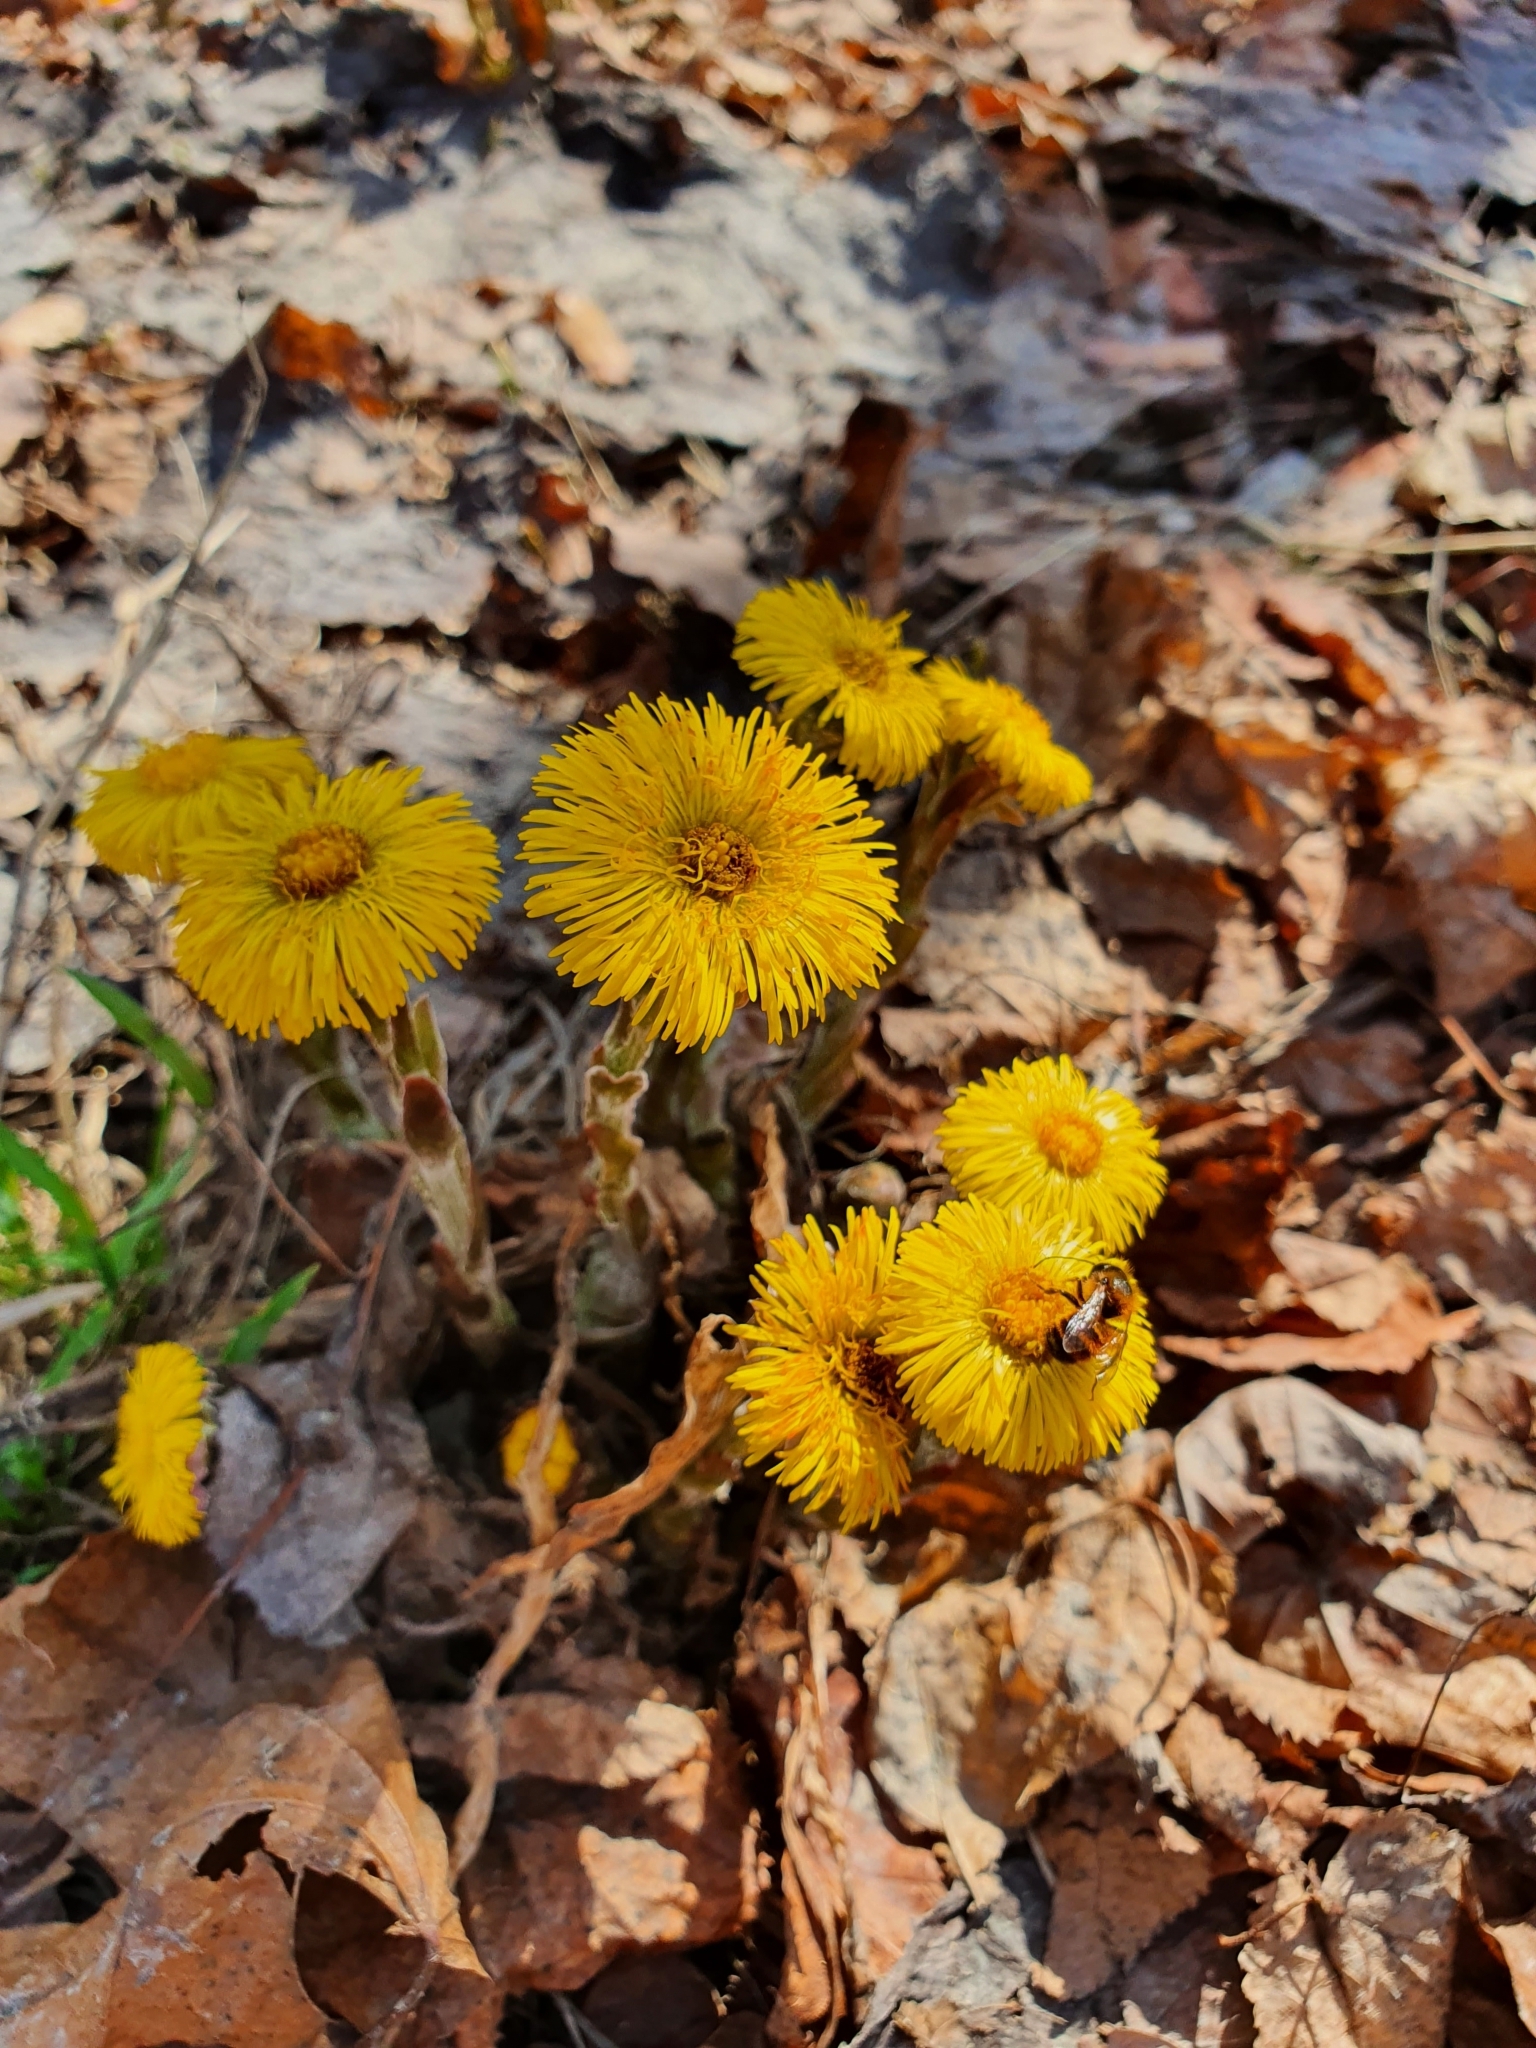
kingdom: Plantae
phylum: Tracheophyta
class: Magnoliopsida
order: Asterales
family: Asteraceae
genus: Tussilago
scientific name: Tussilago farfara
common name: Coltsfoot
